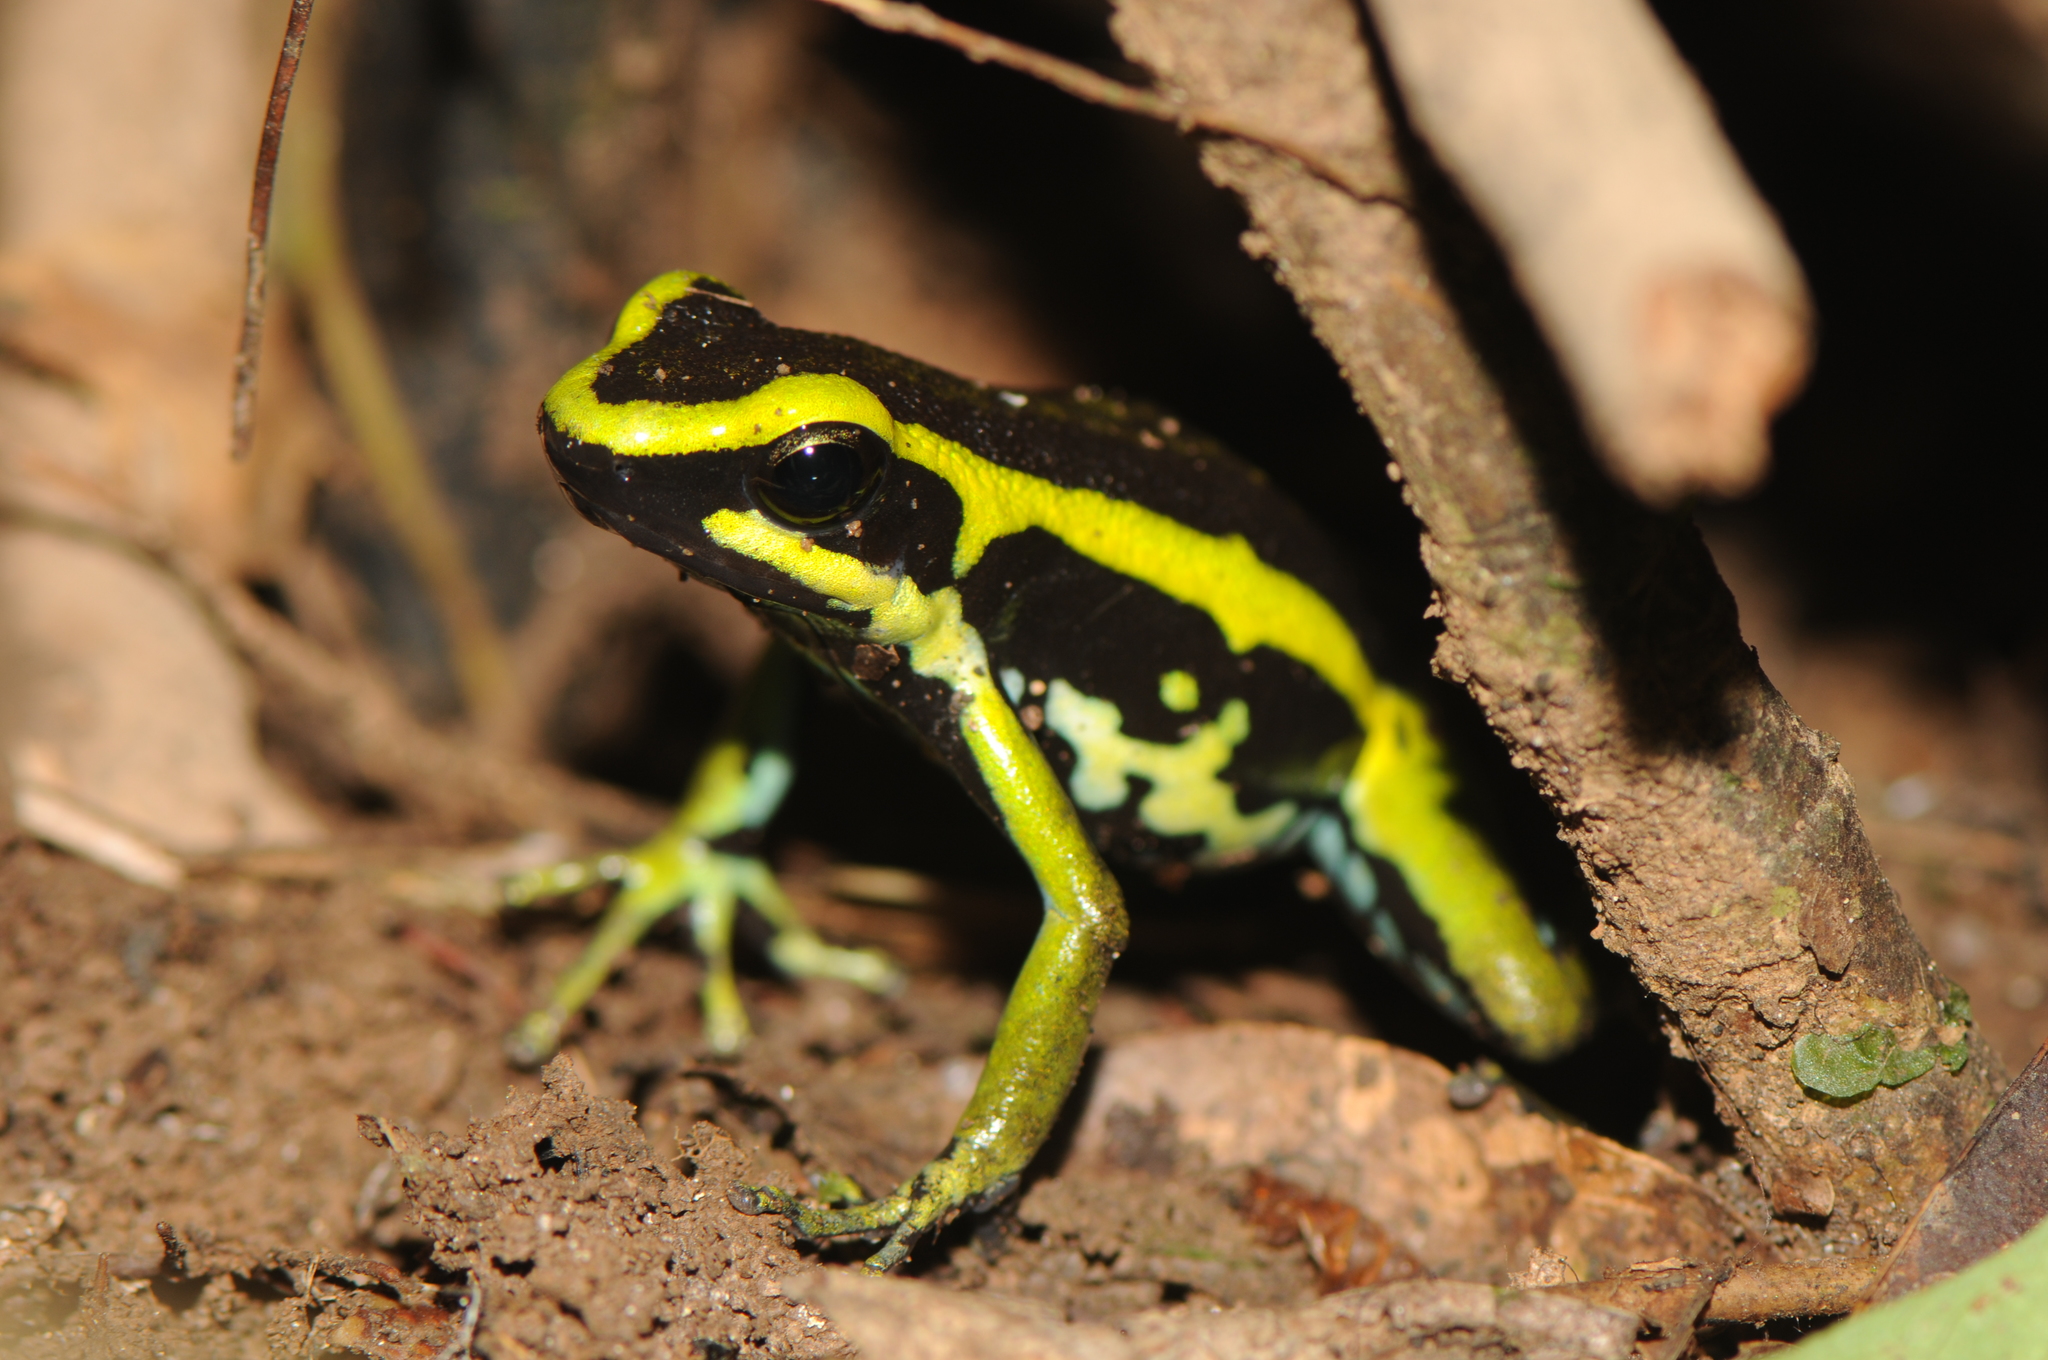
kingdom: Animalia
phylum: Chordata
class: Amphibia
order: Anura
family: Dendrobatidae
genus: Ameerega
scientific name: Ameerega trivittata
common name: Three-striped arrow-poison frog
